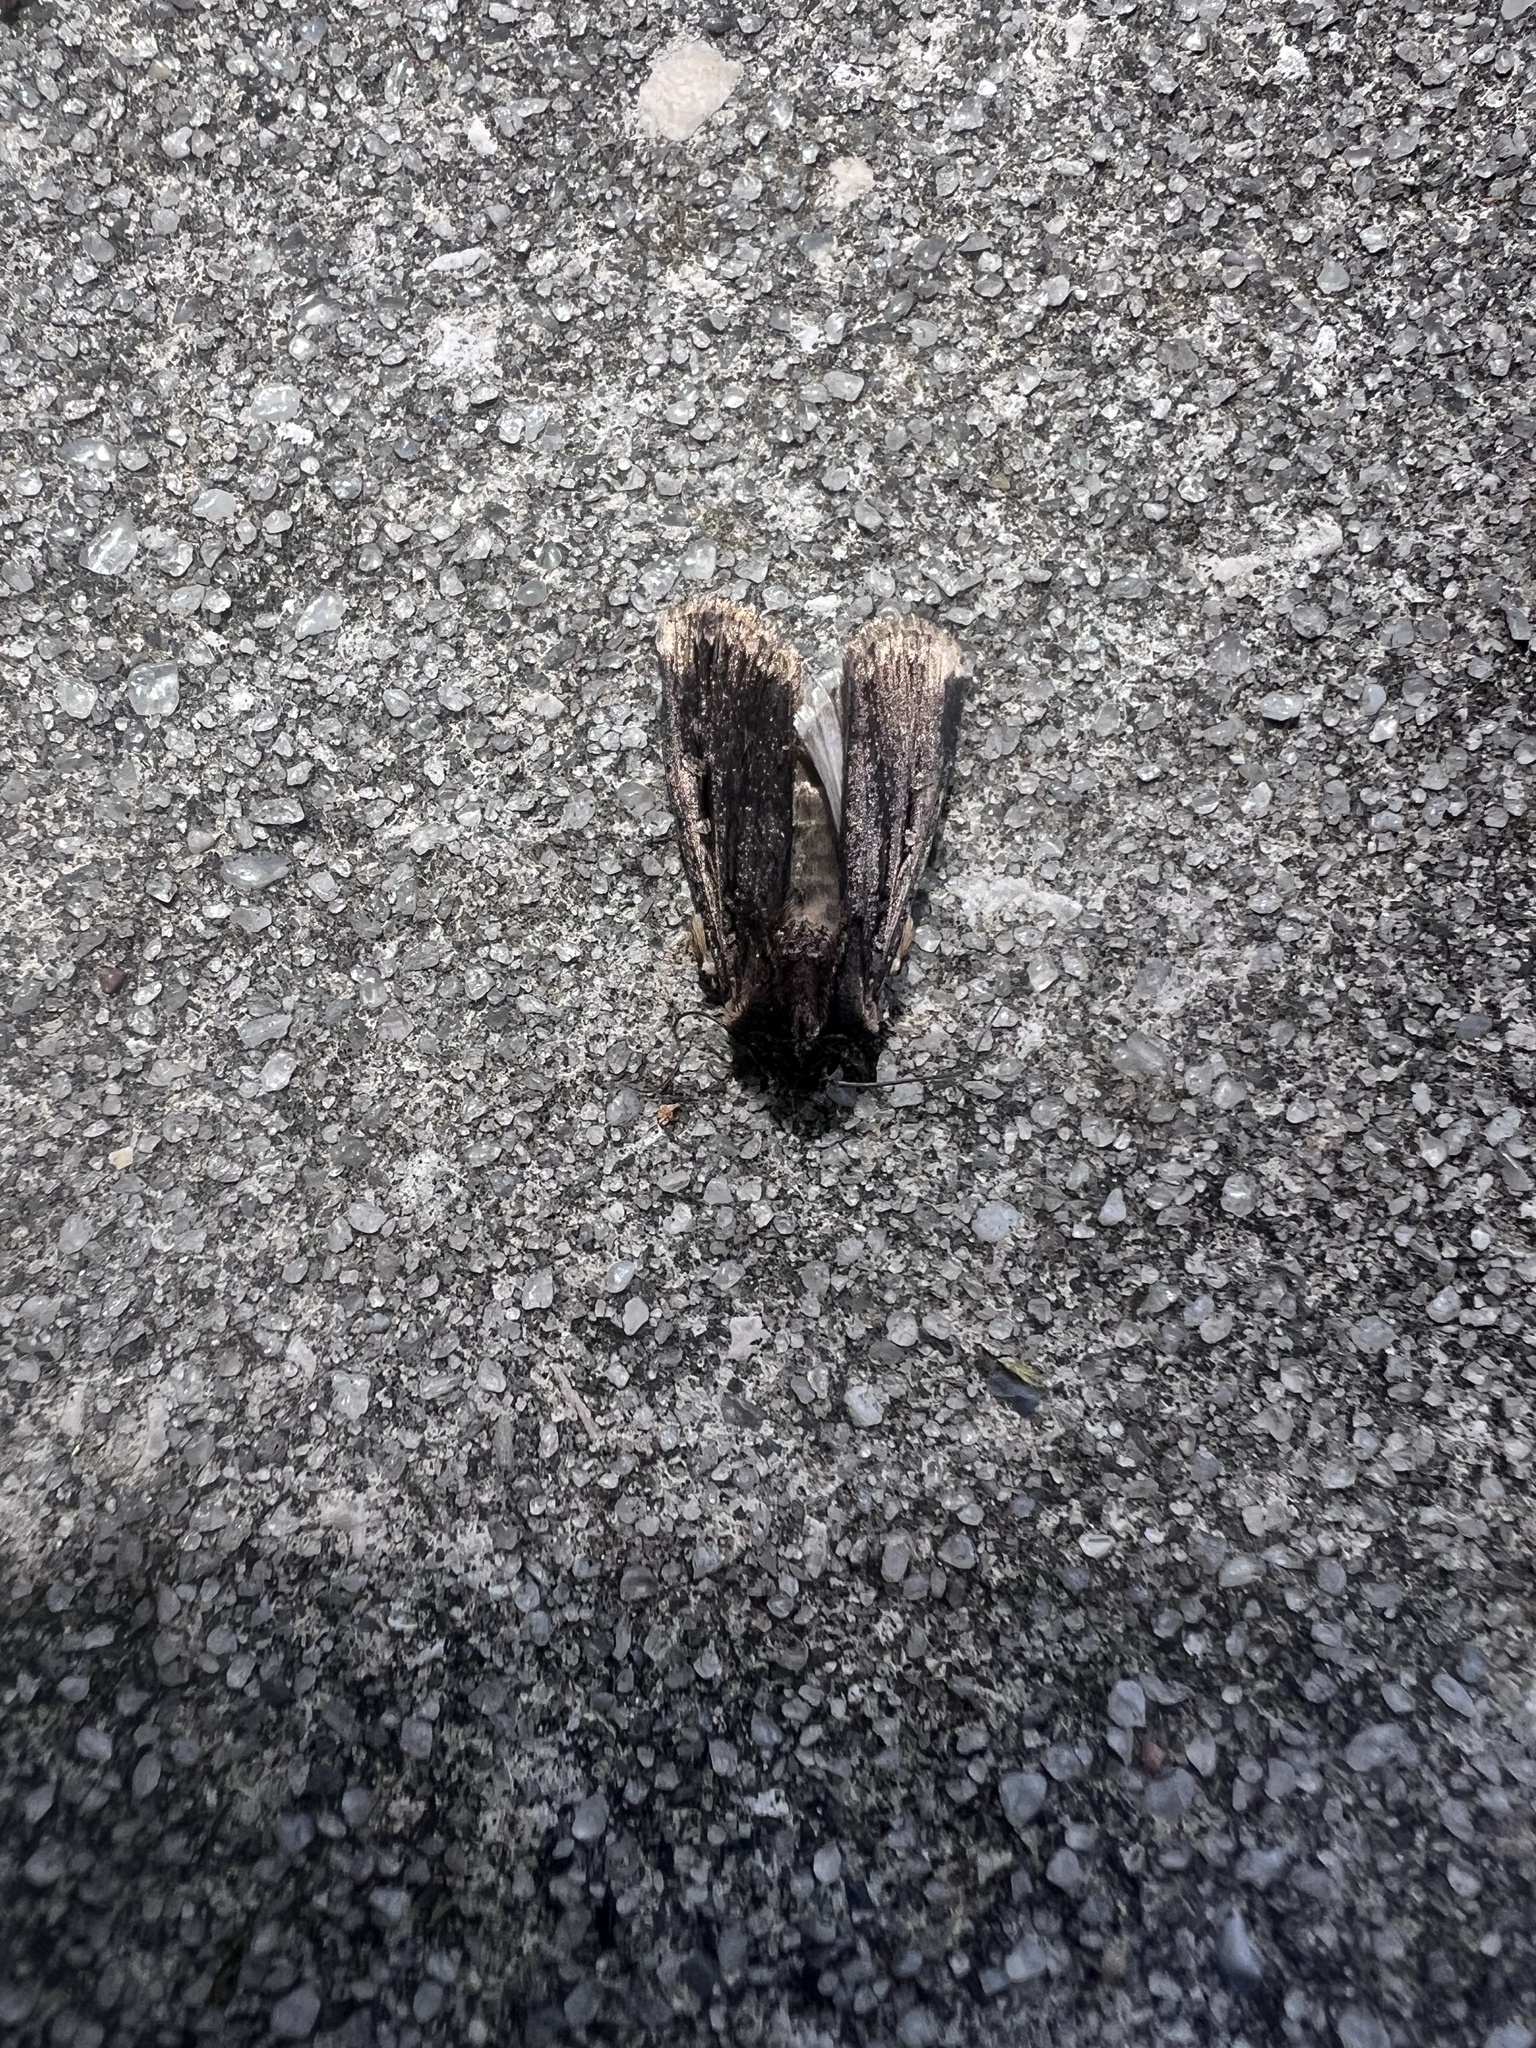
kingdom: Animalia
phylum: Arthropoda
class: Insecta
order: Lepidoptera
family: Noctuidae
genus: Feltia
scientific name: Feltia subterranea
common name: Granulate cutworm
